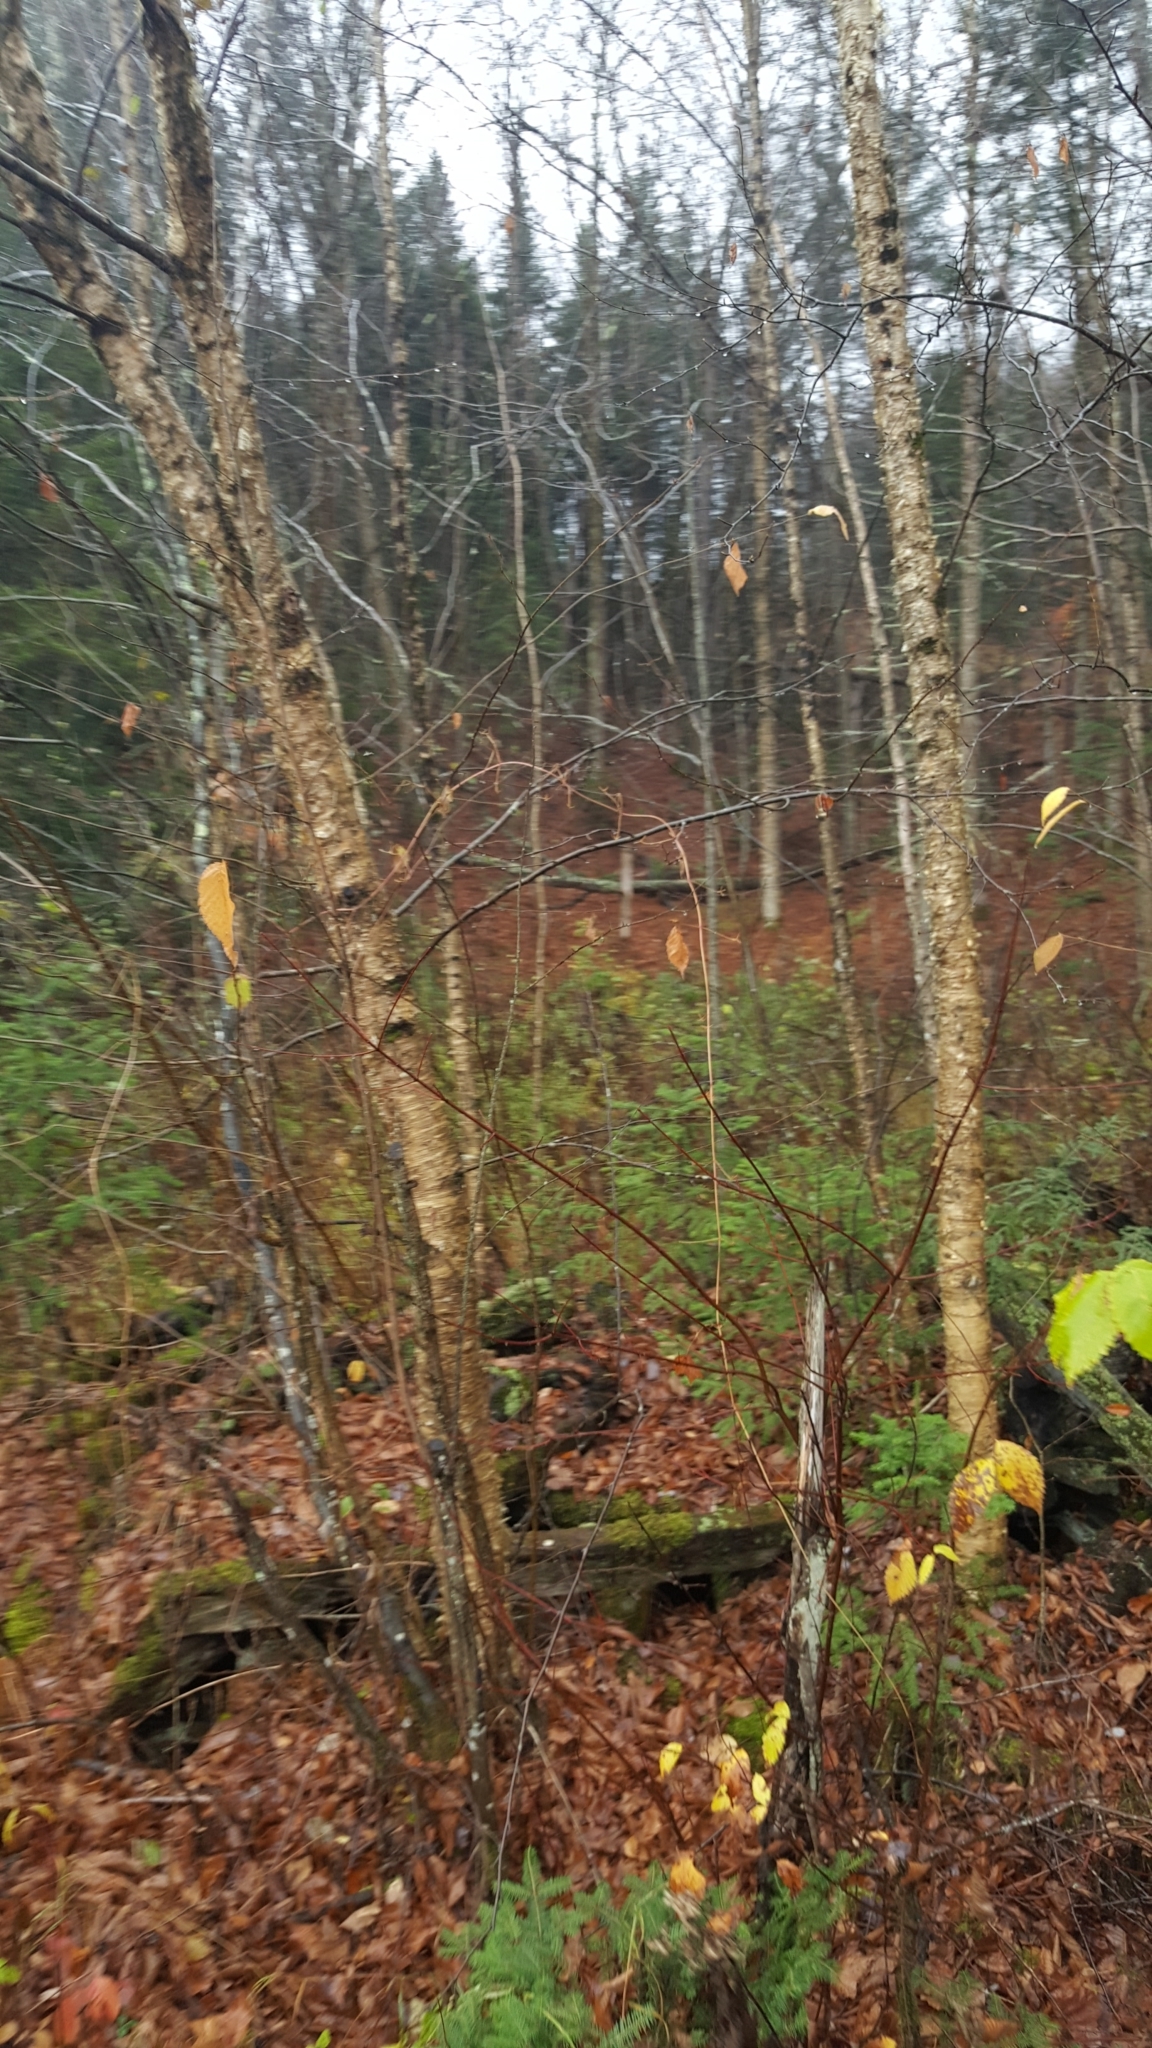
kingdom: Plantae
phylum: Tracheophyta
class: Magnoliopsida
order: Fagales
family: Betulaceae
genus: Betula
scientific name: Betula alleghaniensis
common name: Yellow birch
